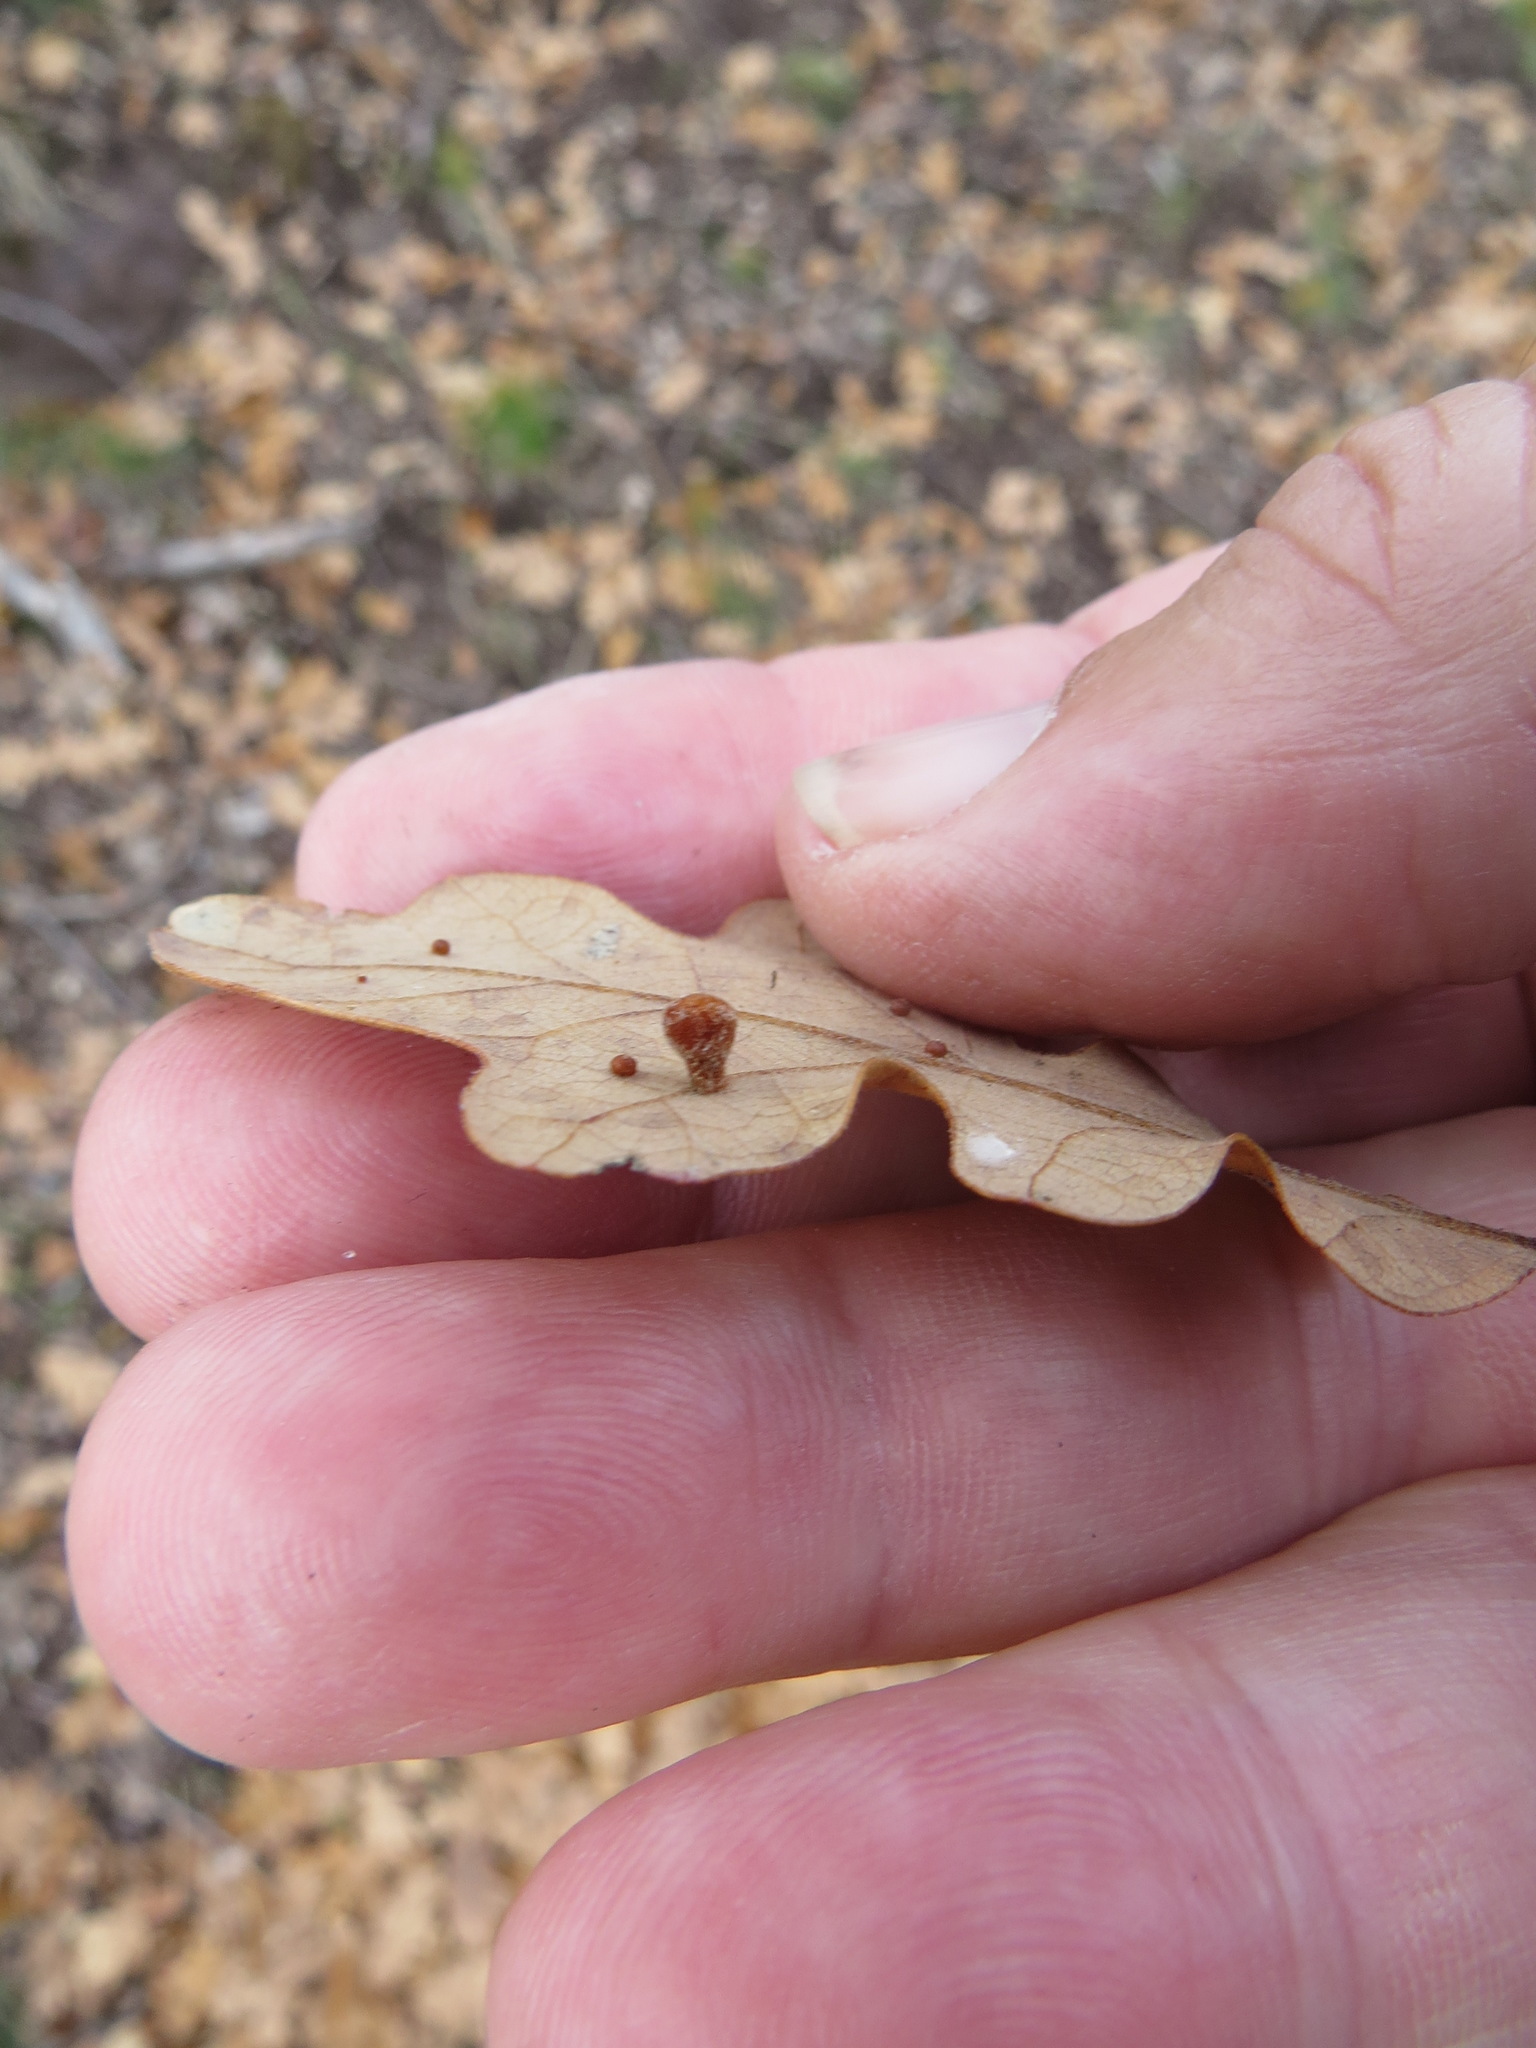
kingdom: Animalia
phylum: Arthropoda
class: Insecta
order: Hymenoptera
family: Cynipidae
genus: Trigonaspis
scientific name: Trigonaspis
